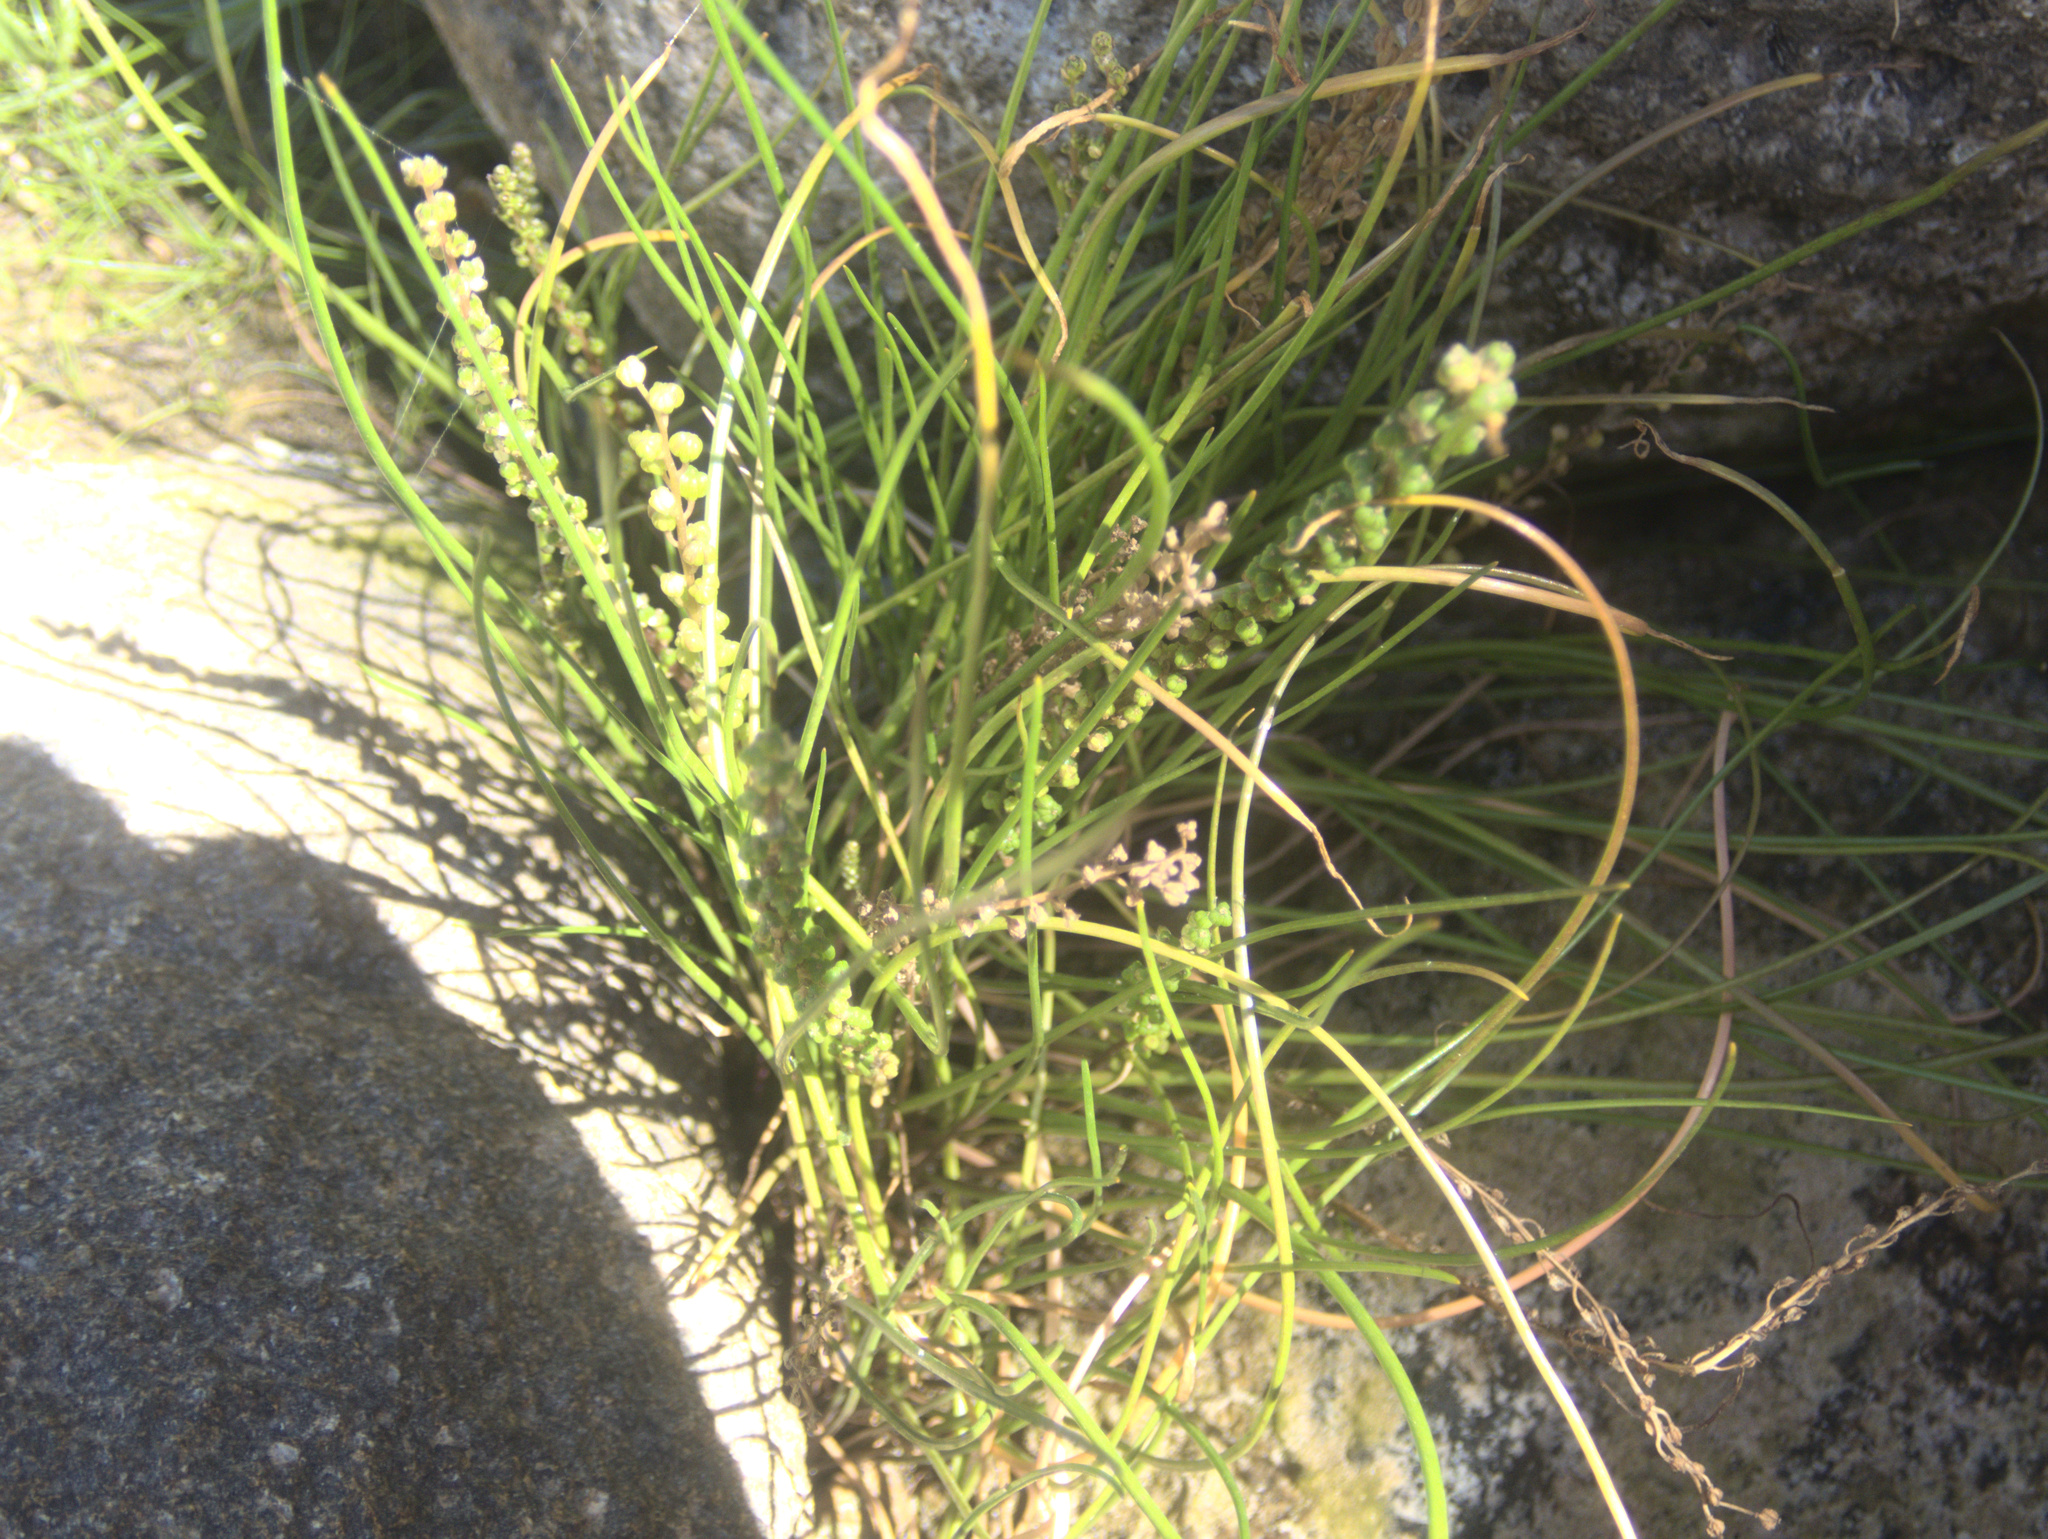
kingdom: Plantae
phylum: Tracheophyta
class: Liliopsida
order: Alismatales
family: Juncaginaceae
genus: Triglochin
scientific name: Triglochin striata
